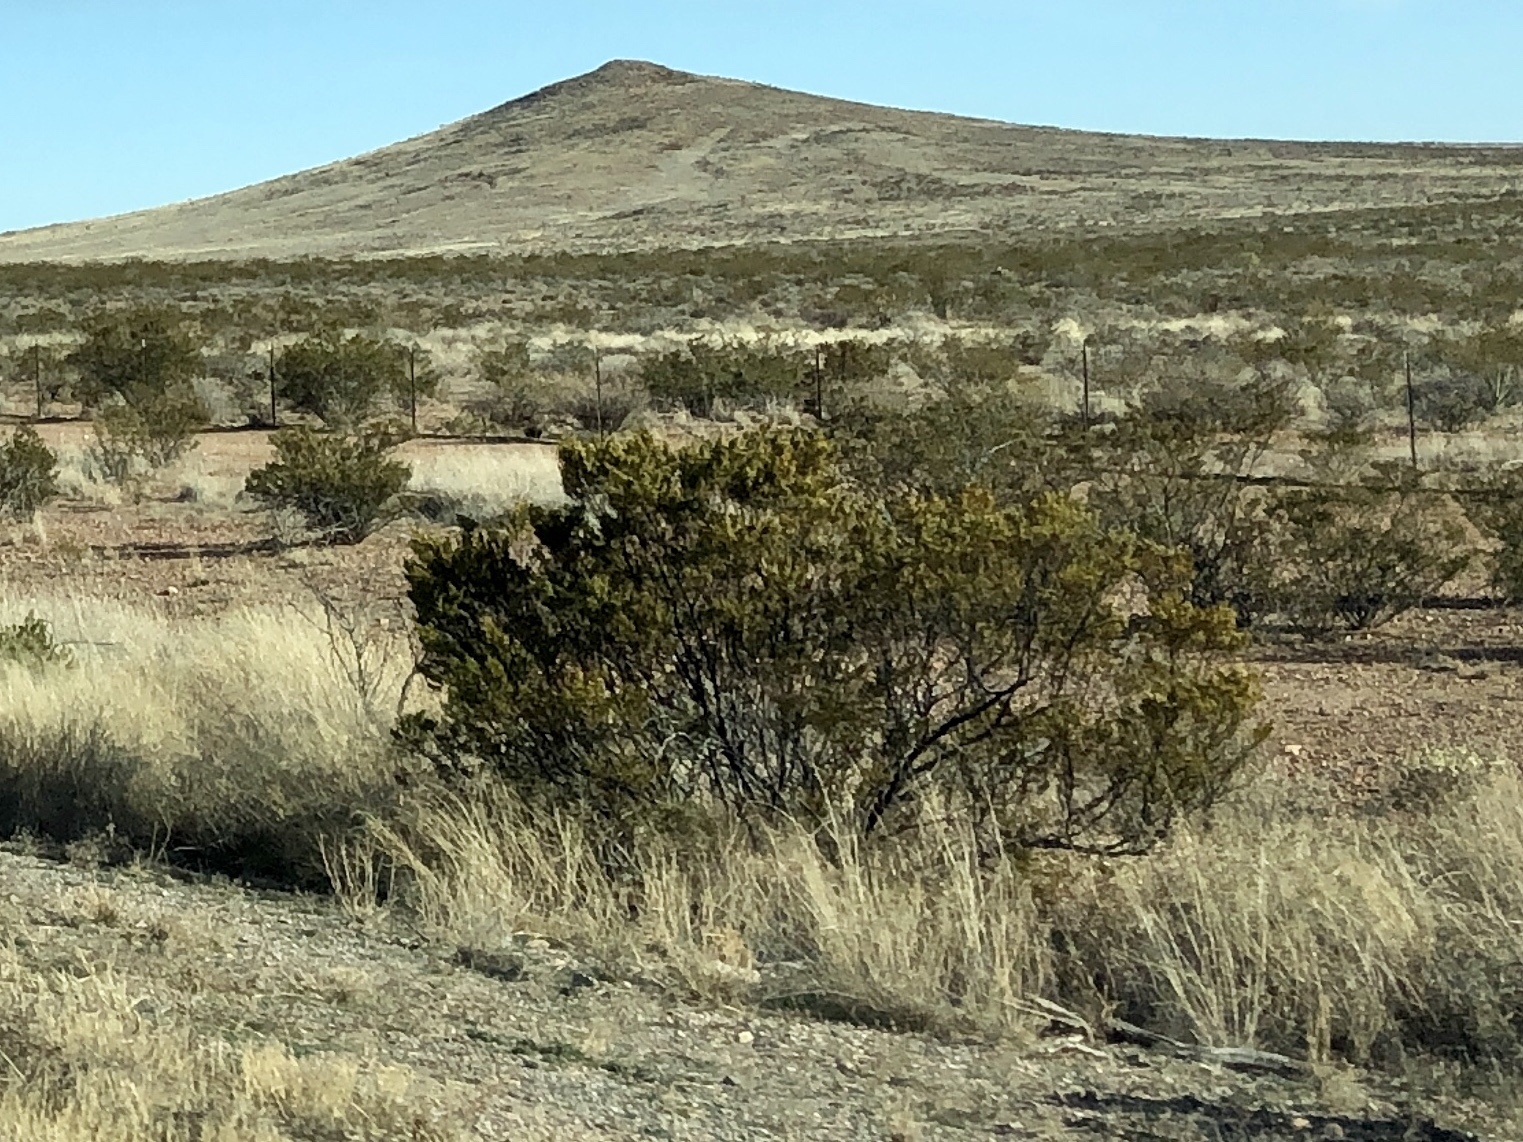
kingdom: Plantae
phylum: Tracheophyta
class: Magnoliopsida
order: Zygophyllales
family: Zygophyllaceae
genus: Larrea
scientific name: Larrea tridentata
